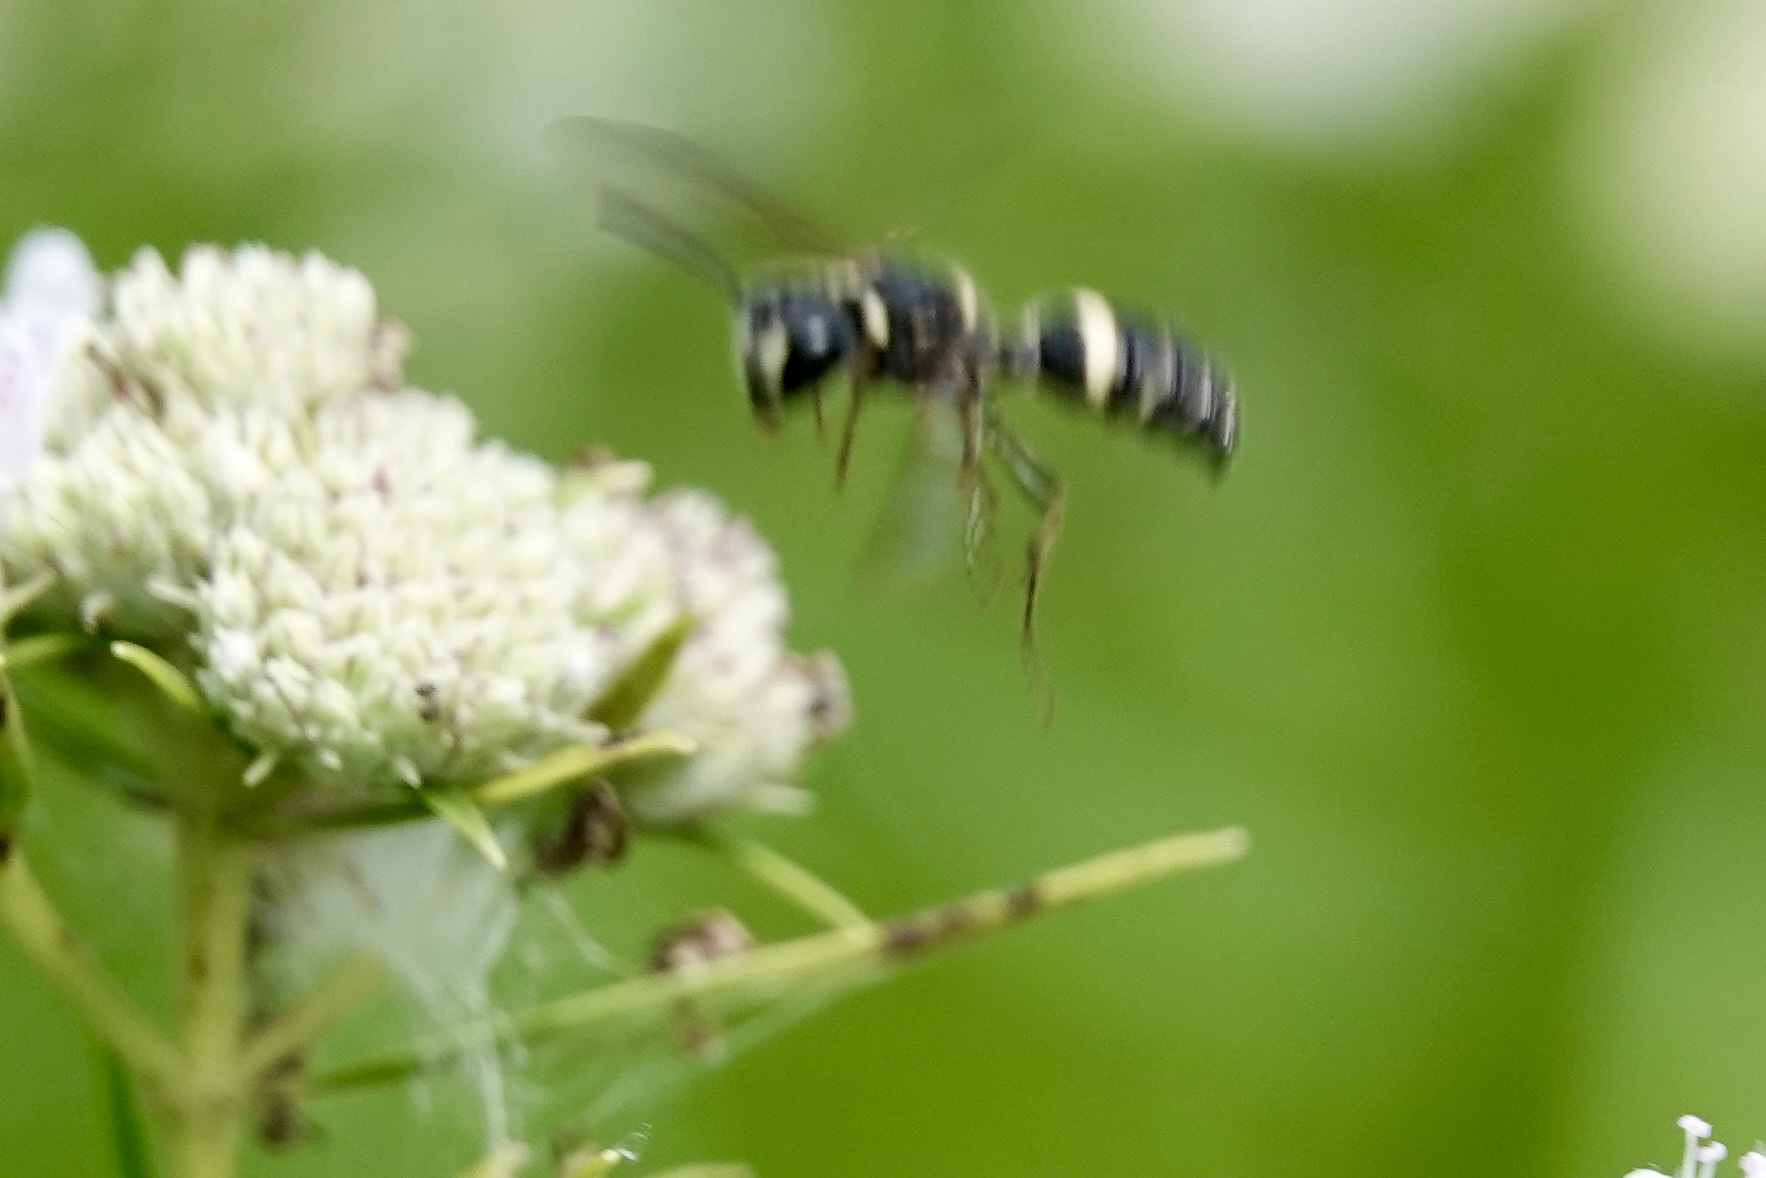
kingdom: Animalia
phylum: Arthropoda
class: Insecta
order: Hymenoptera
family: Crabronidae
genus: Cerceris
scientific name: Cerceris fumipennis
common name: Smokey-winged beetle bandit wasp
